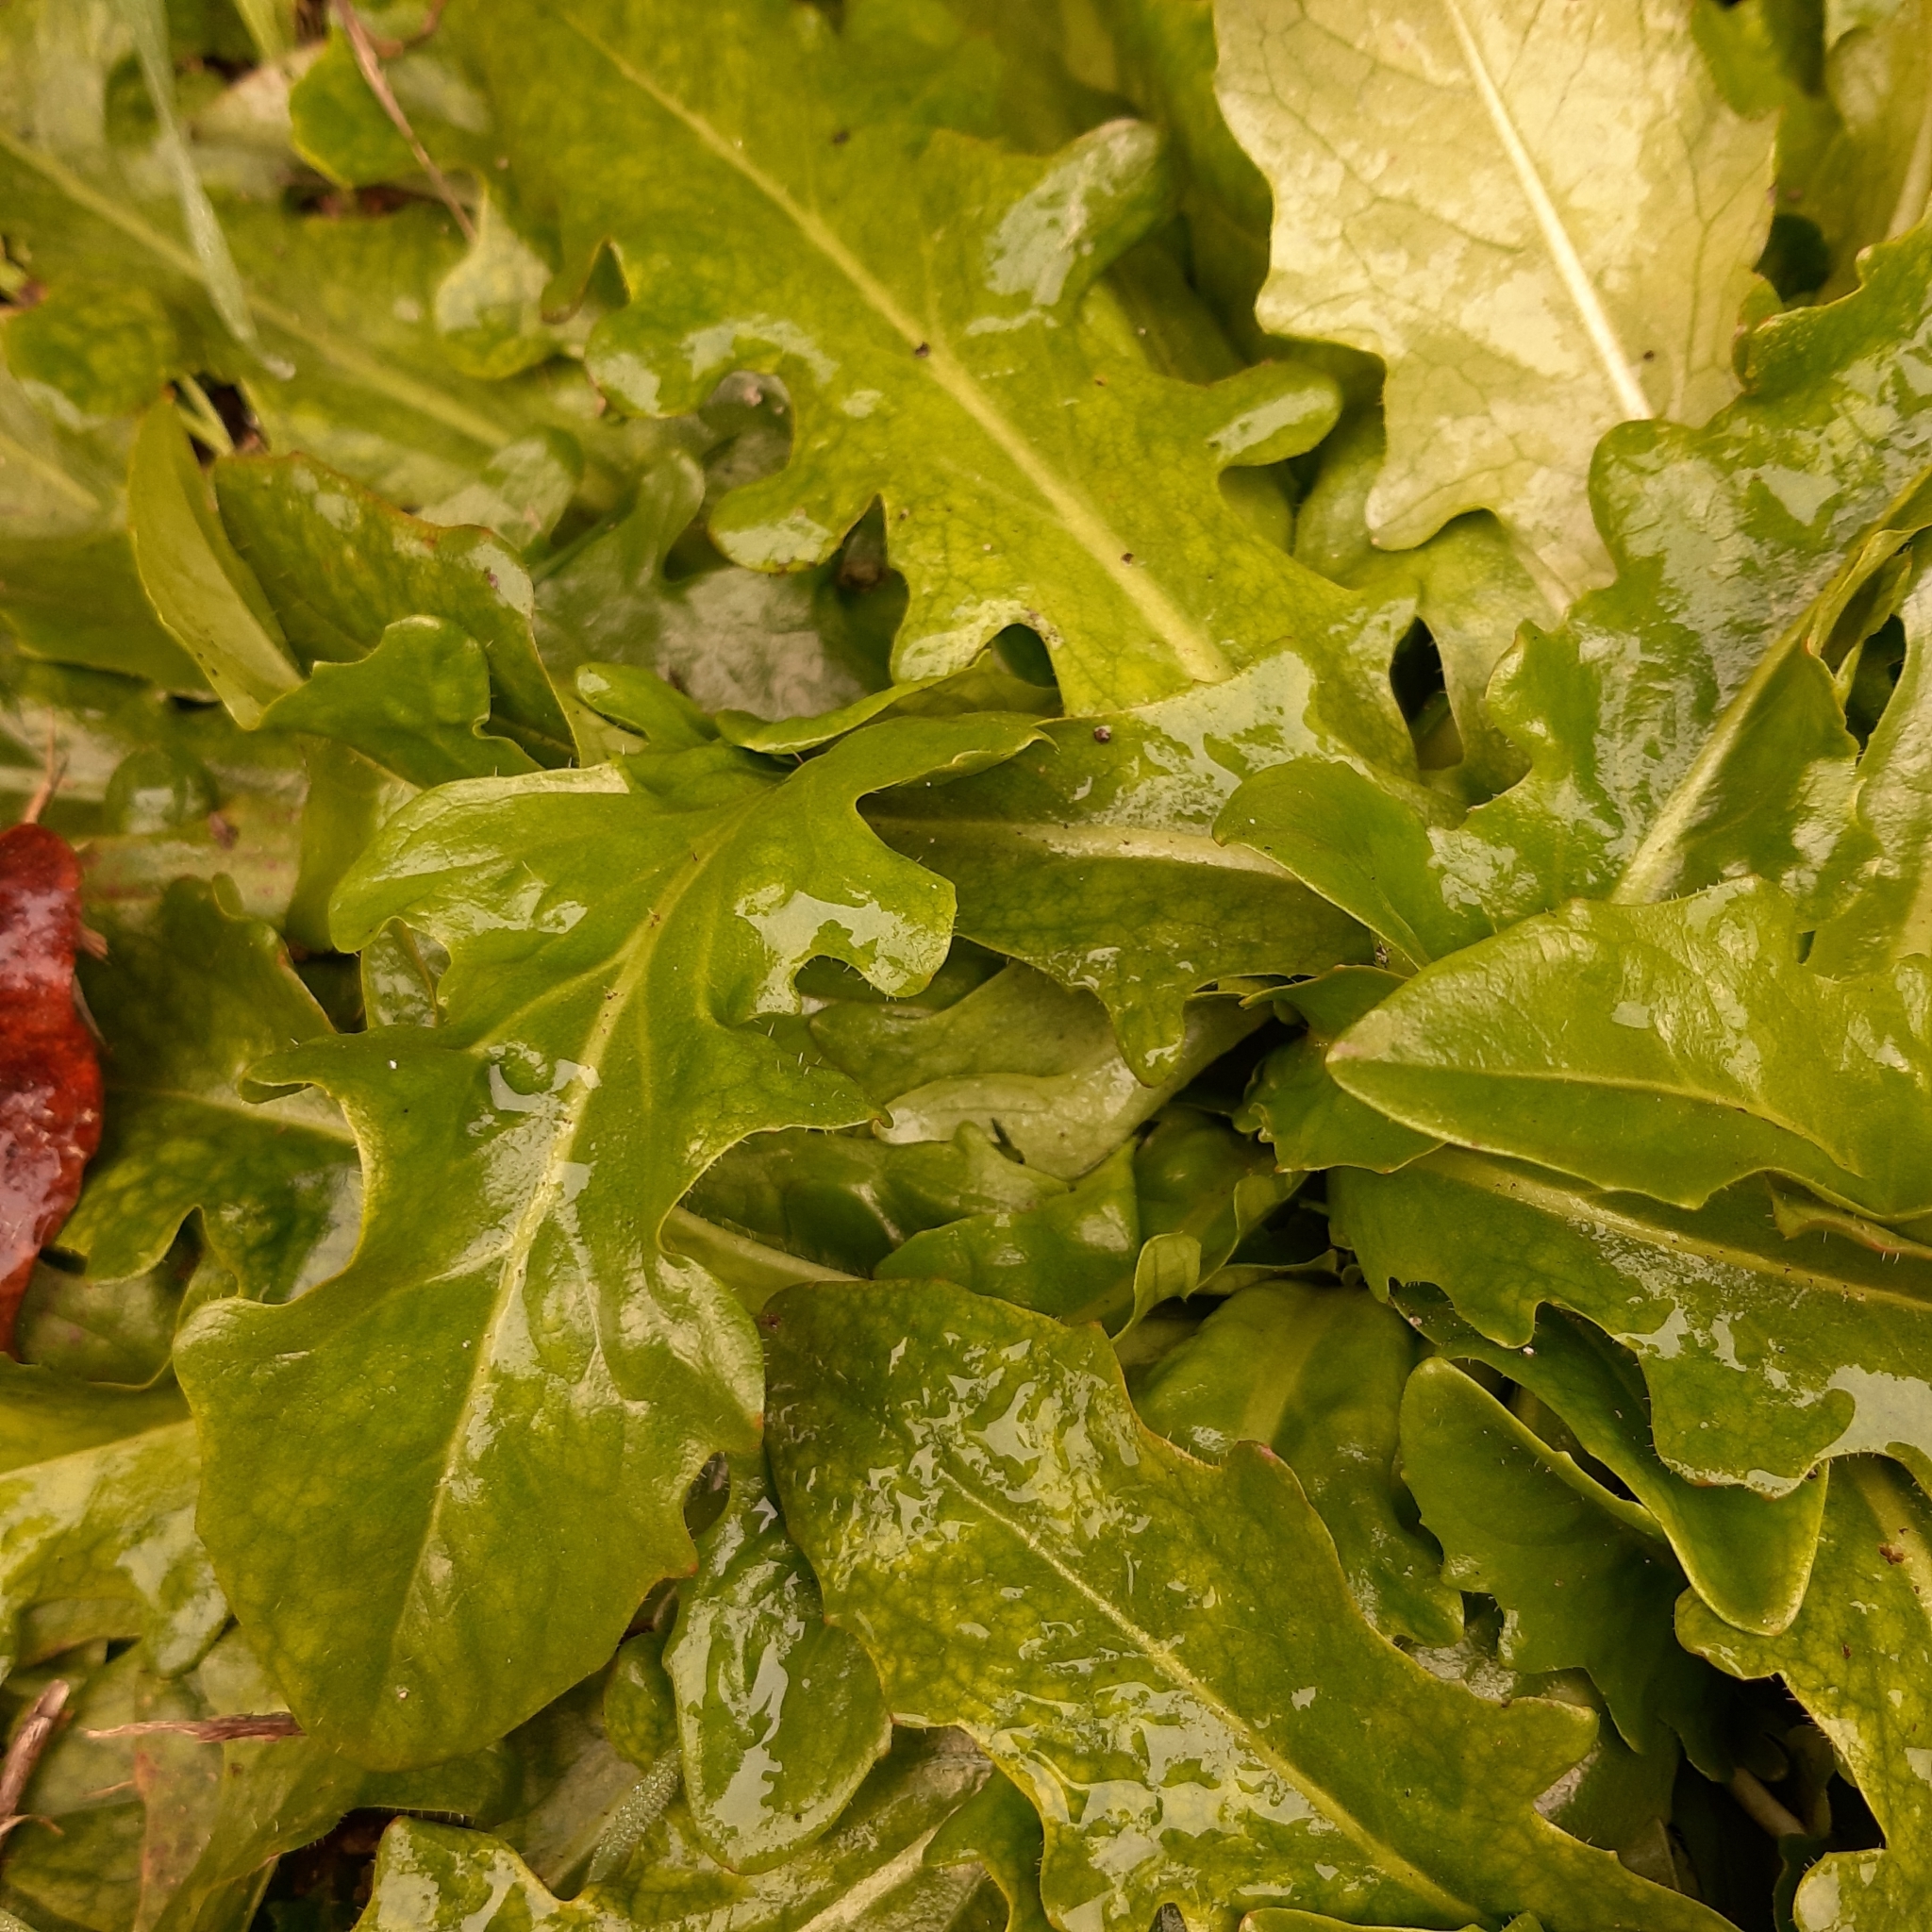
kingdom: Plantae
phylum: Tracheophyta
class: Magnoliopsida
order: Asterales
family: Asteraceae
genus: Hypochaeris
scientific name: Hypochaeris radicata
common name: Flatweed
